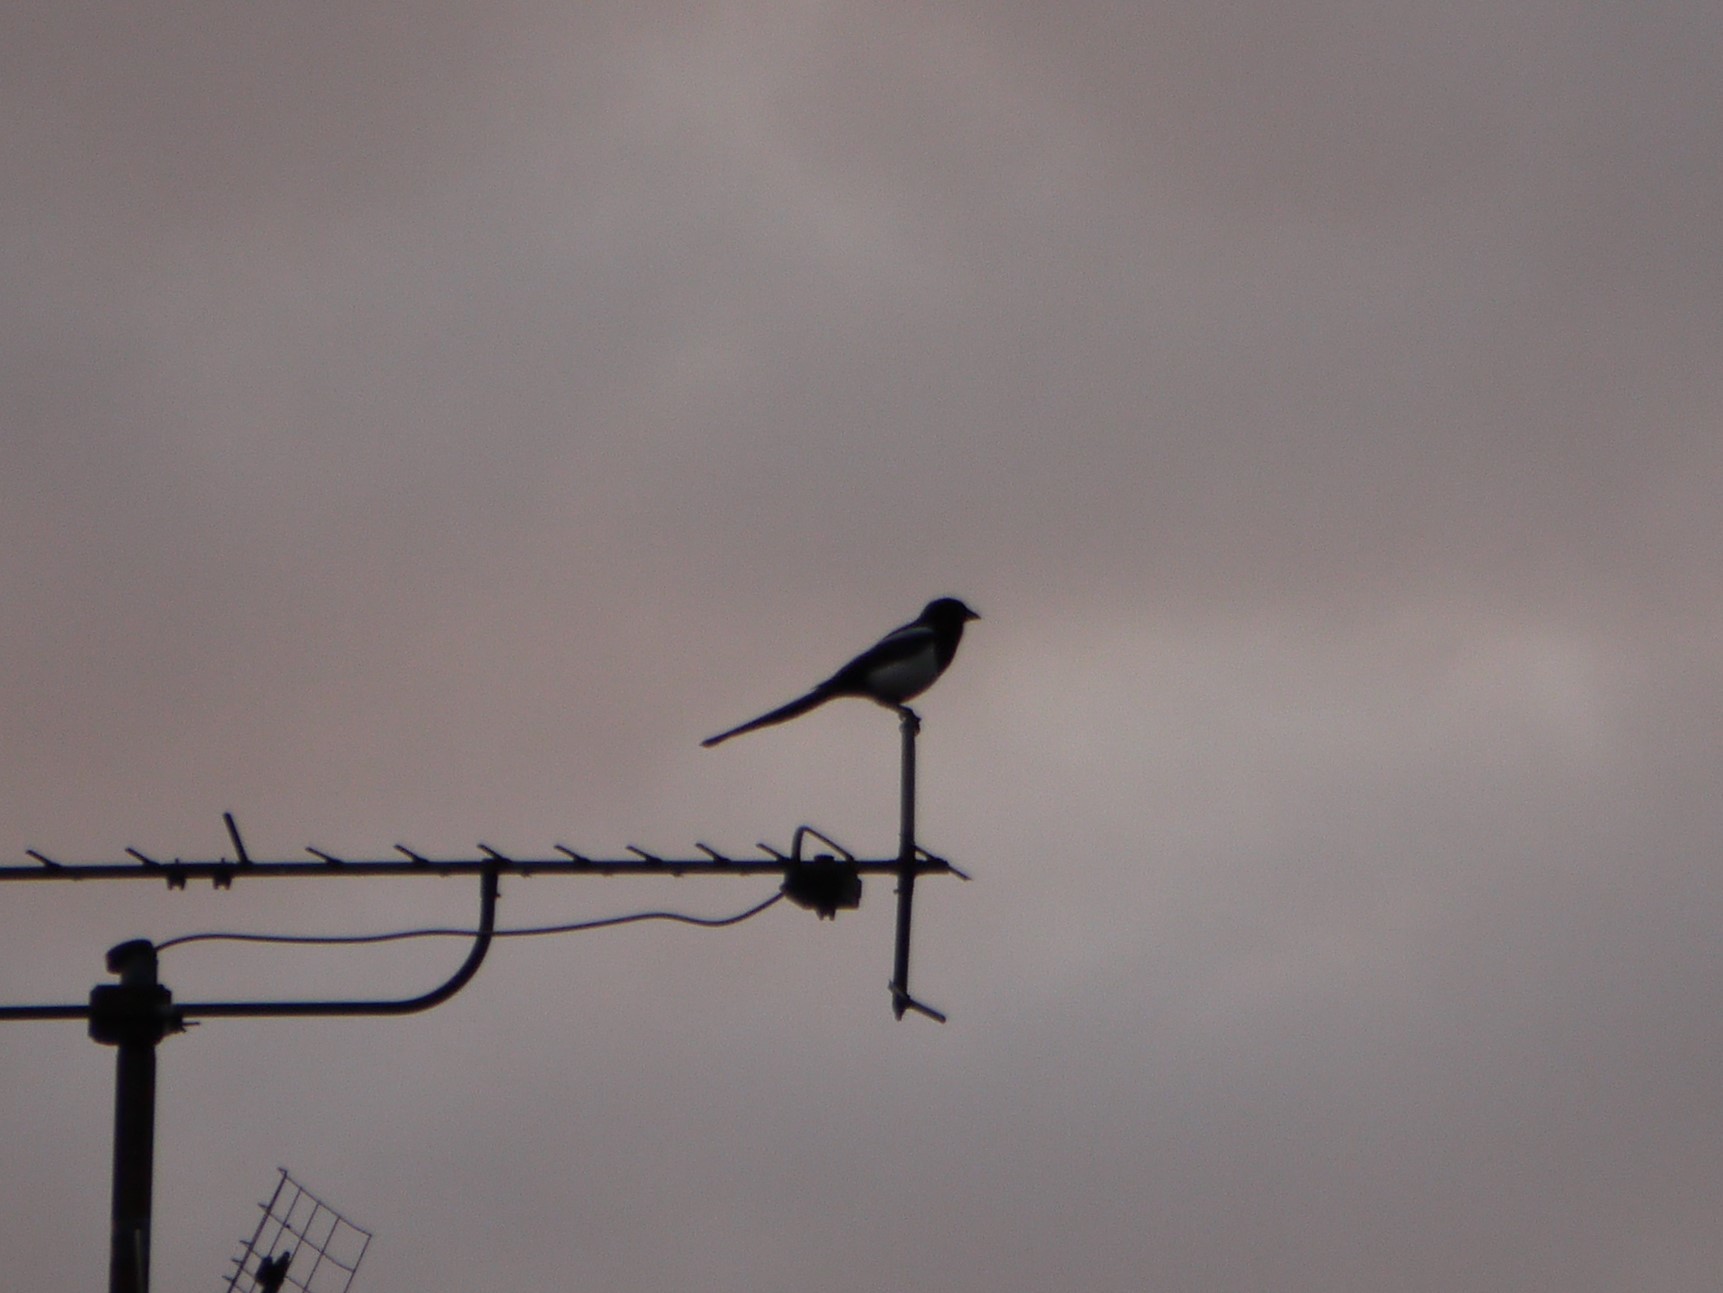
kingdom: Animalia
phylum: Chordata
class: Aves
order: Passeriformes
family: Corvidae
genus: Pica
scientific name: Pica pica
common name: Eurasian magpie
